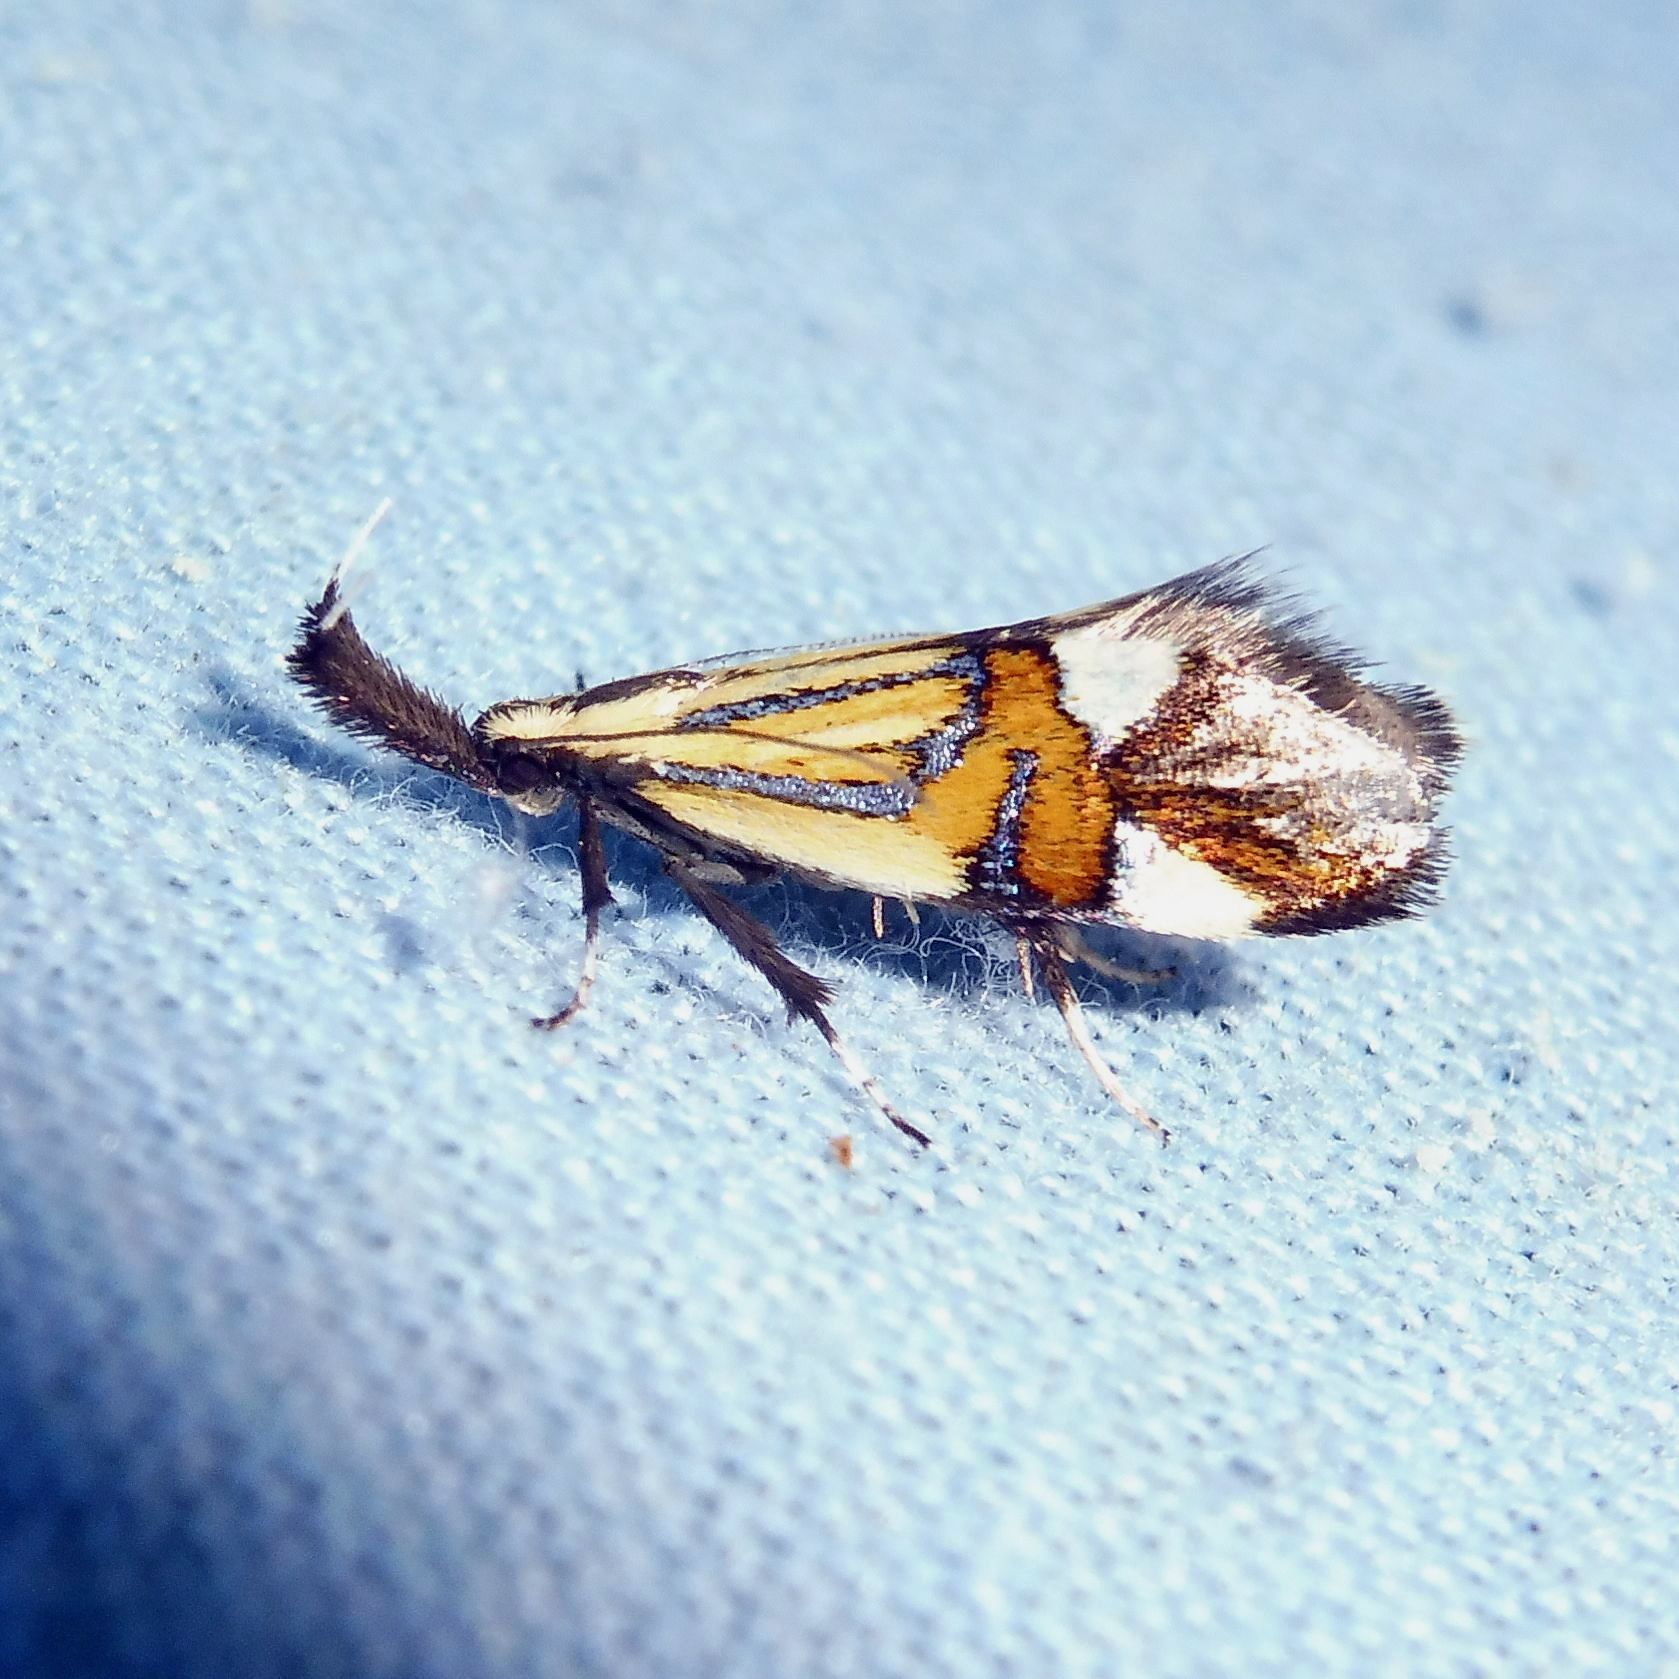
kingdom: Animalia
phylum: Arthropoda
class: Insecta
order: Lepidoptera
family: Oecophoridae
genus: Oecophora
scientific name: Oecophora Alabonia geoffrella
